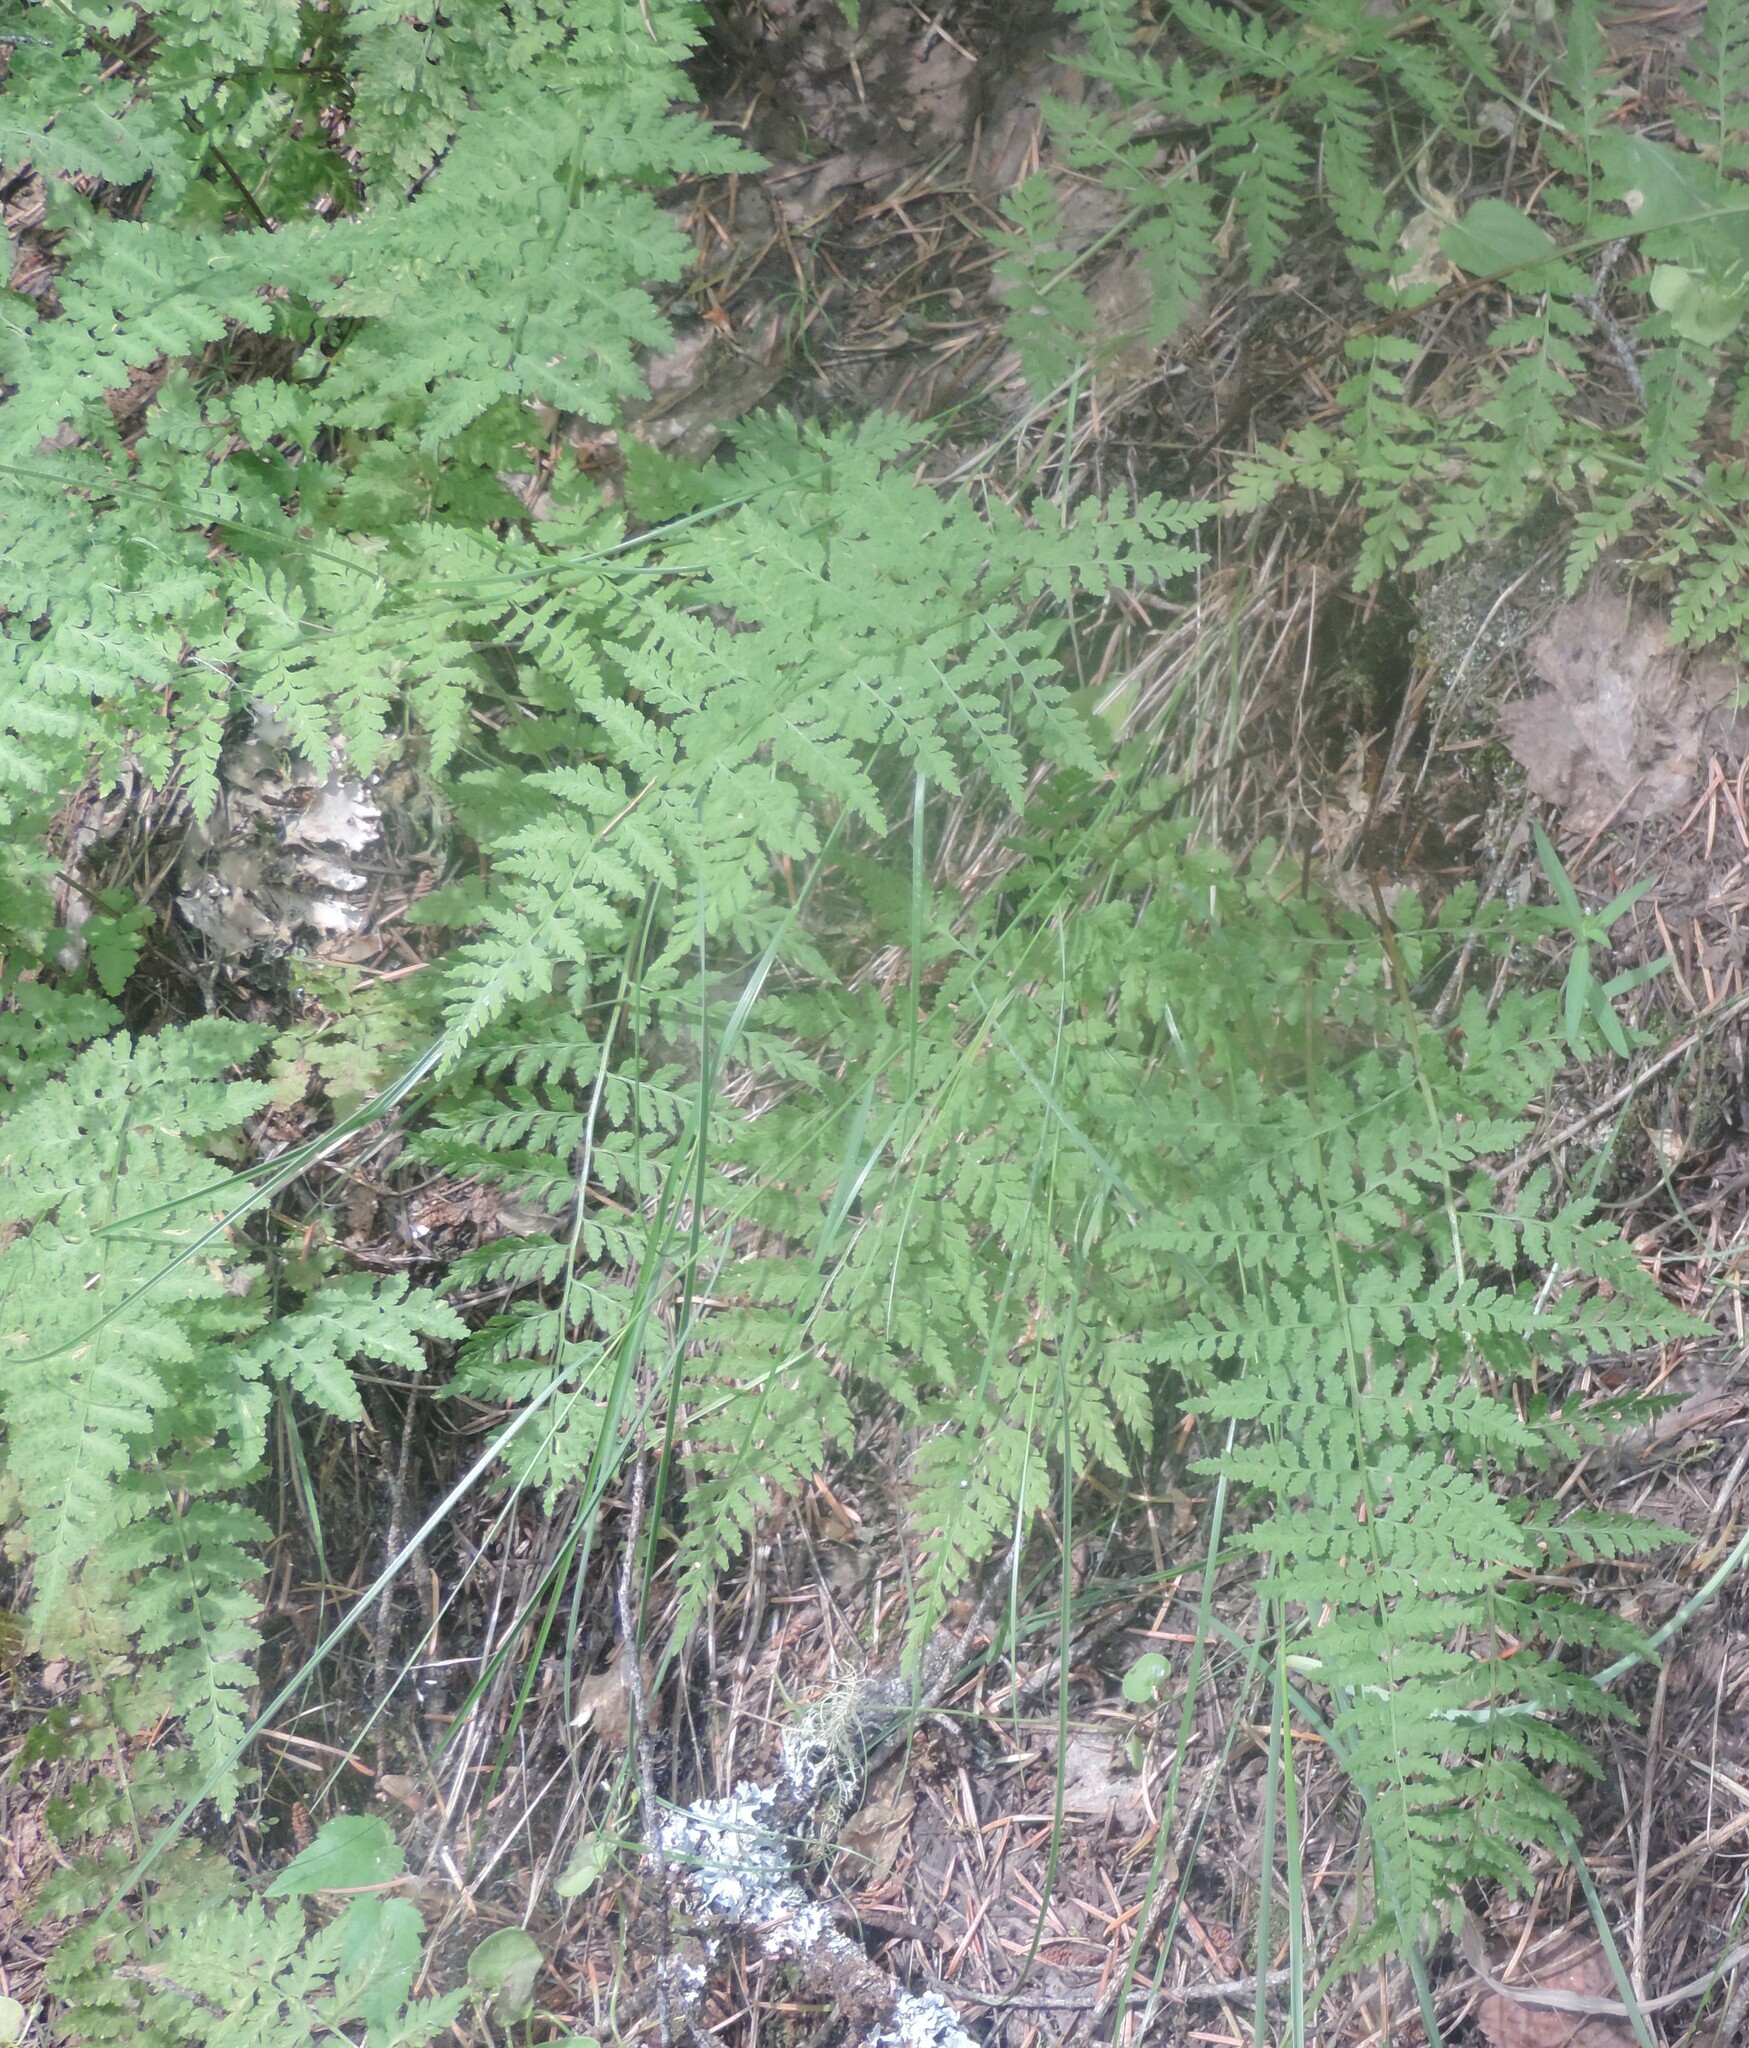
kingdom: Plantae
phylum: Tracheophyta
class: Polypodiopsida
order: Polypodiales
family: Cystopteridaceae
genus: Cystopteris
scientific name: Cystopteris fragilis
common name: Brittle bladder fern
